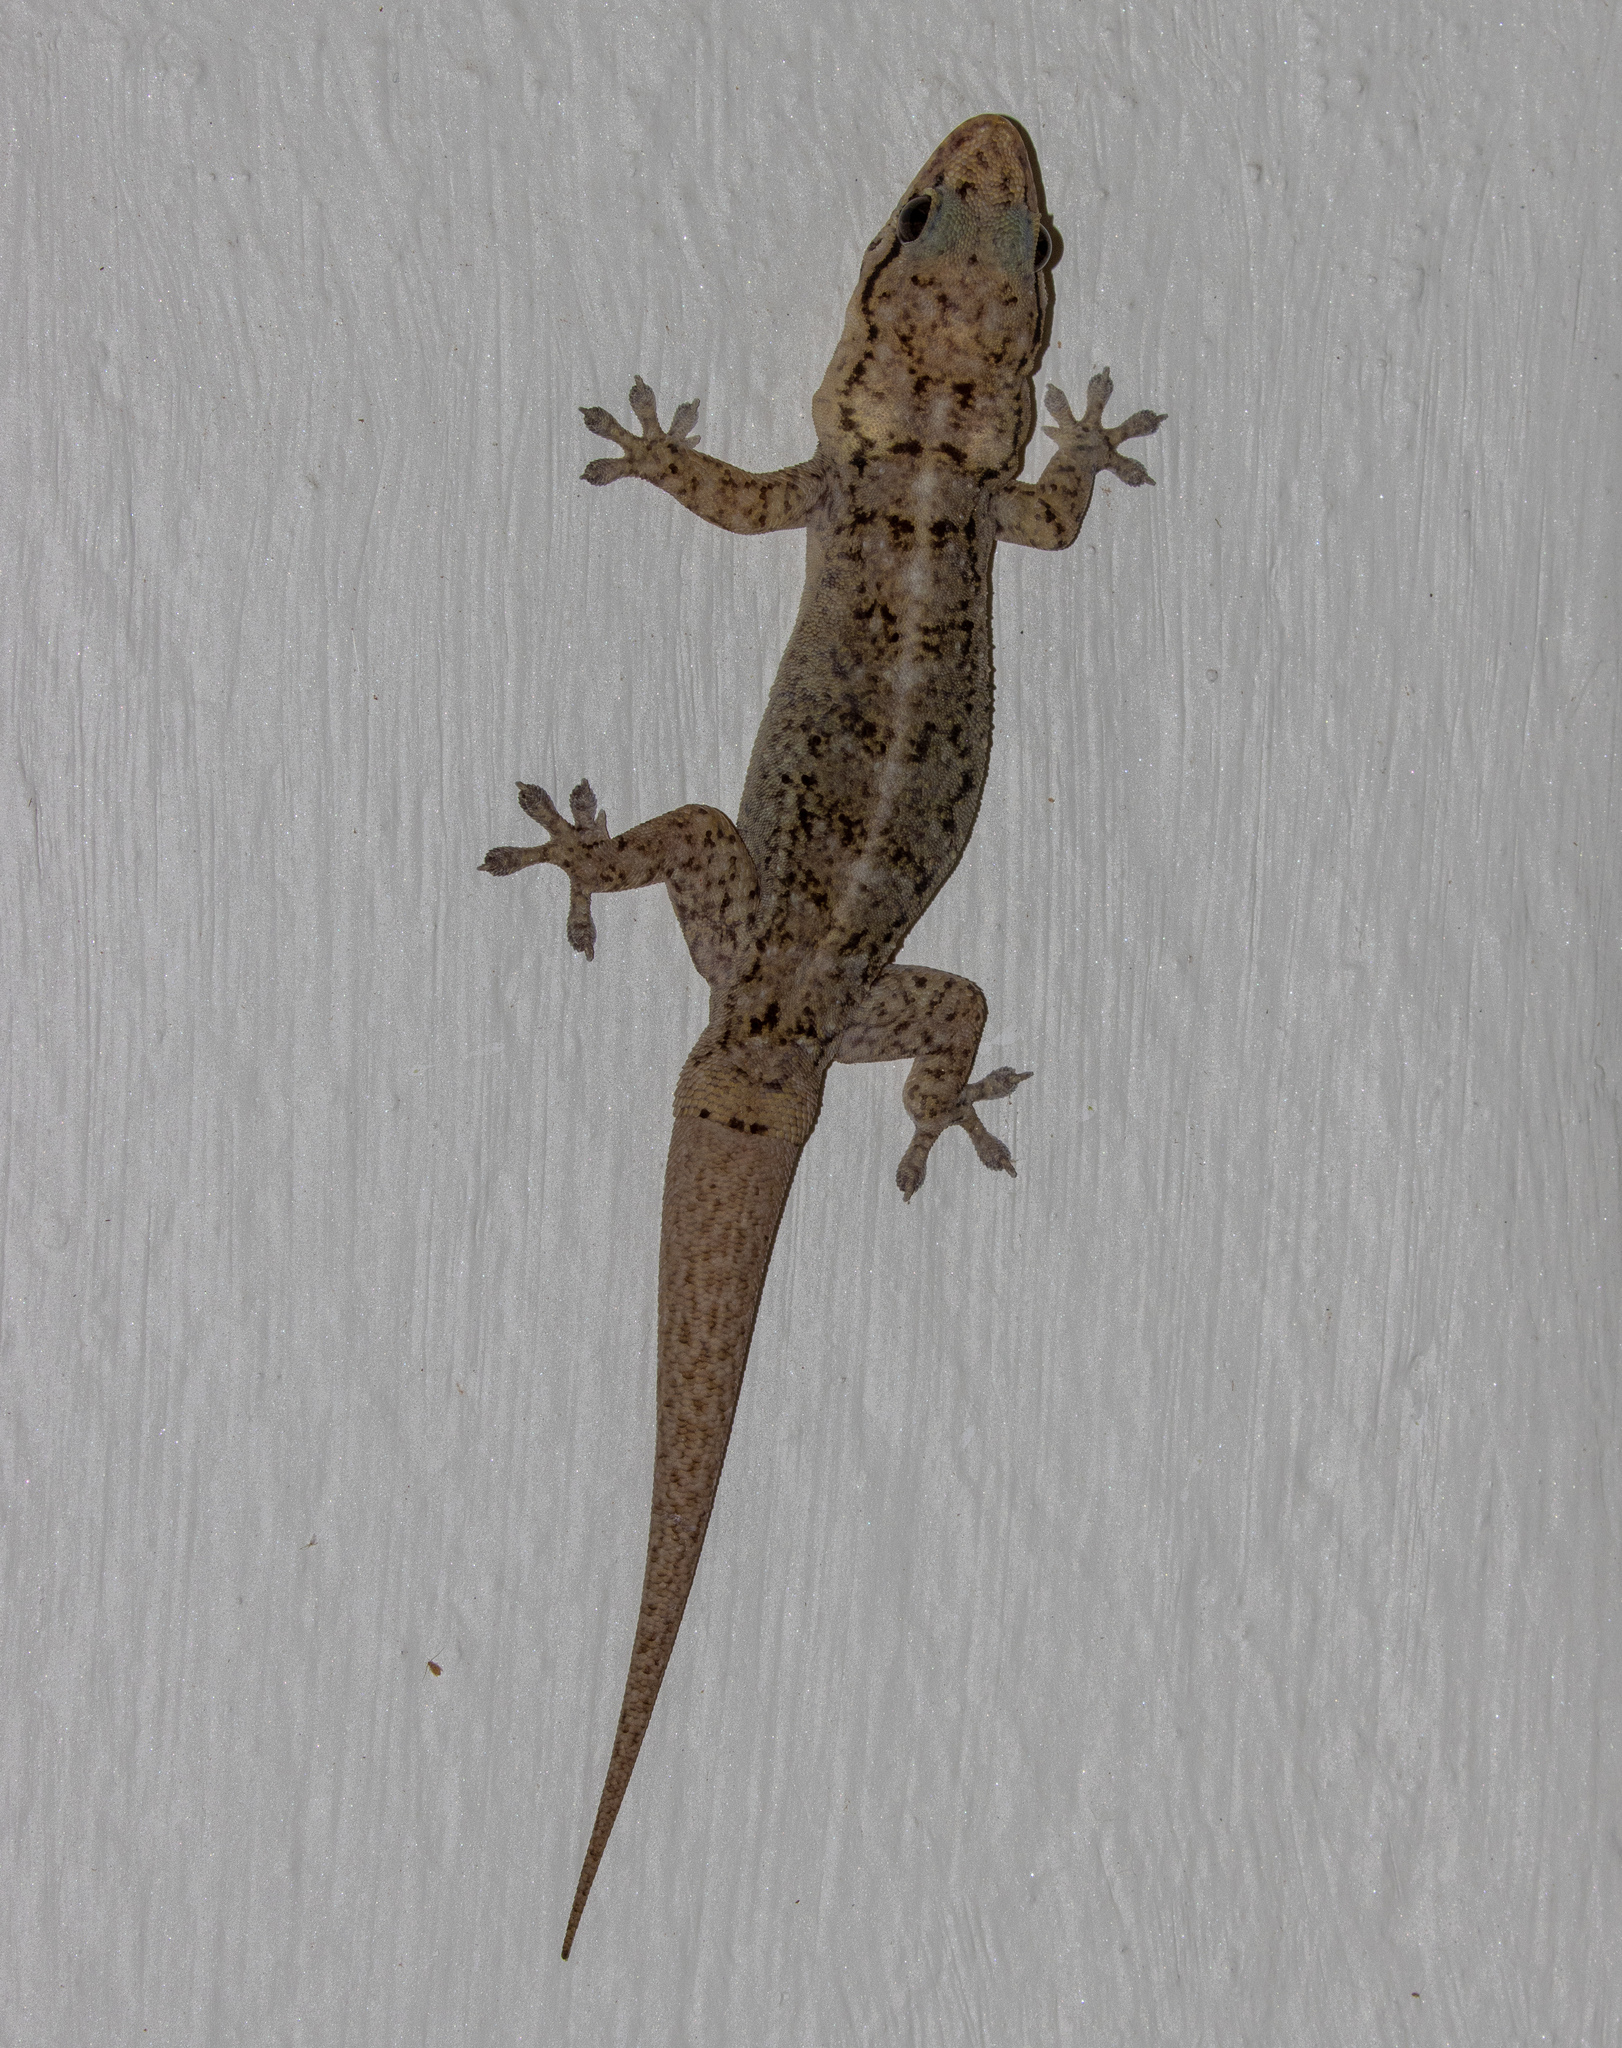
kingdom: Animalia
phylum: Chordata
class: Squamata
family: Phyllodactylidae
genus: Phyllopezus
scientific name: Phyllopezus pollicaris
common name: Brazilian gecko
